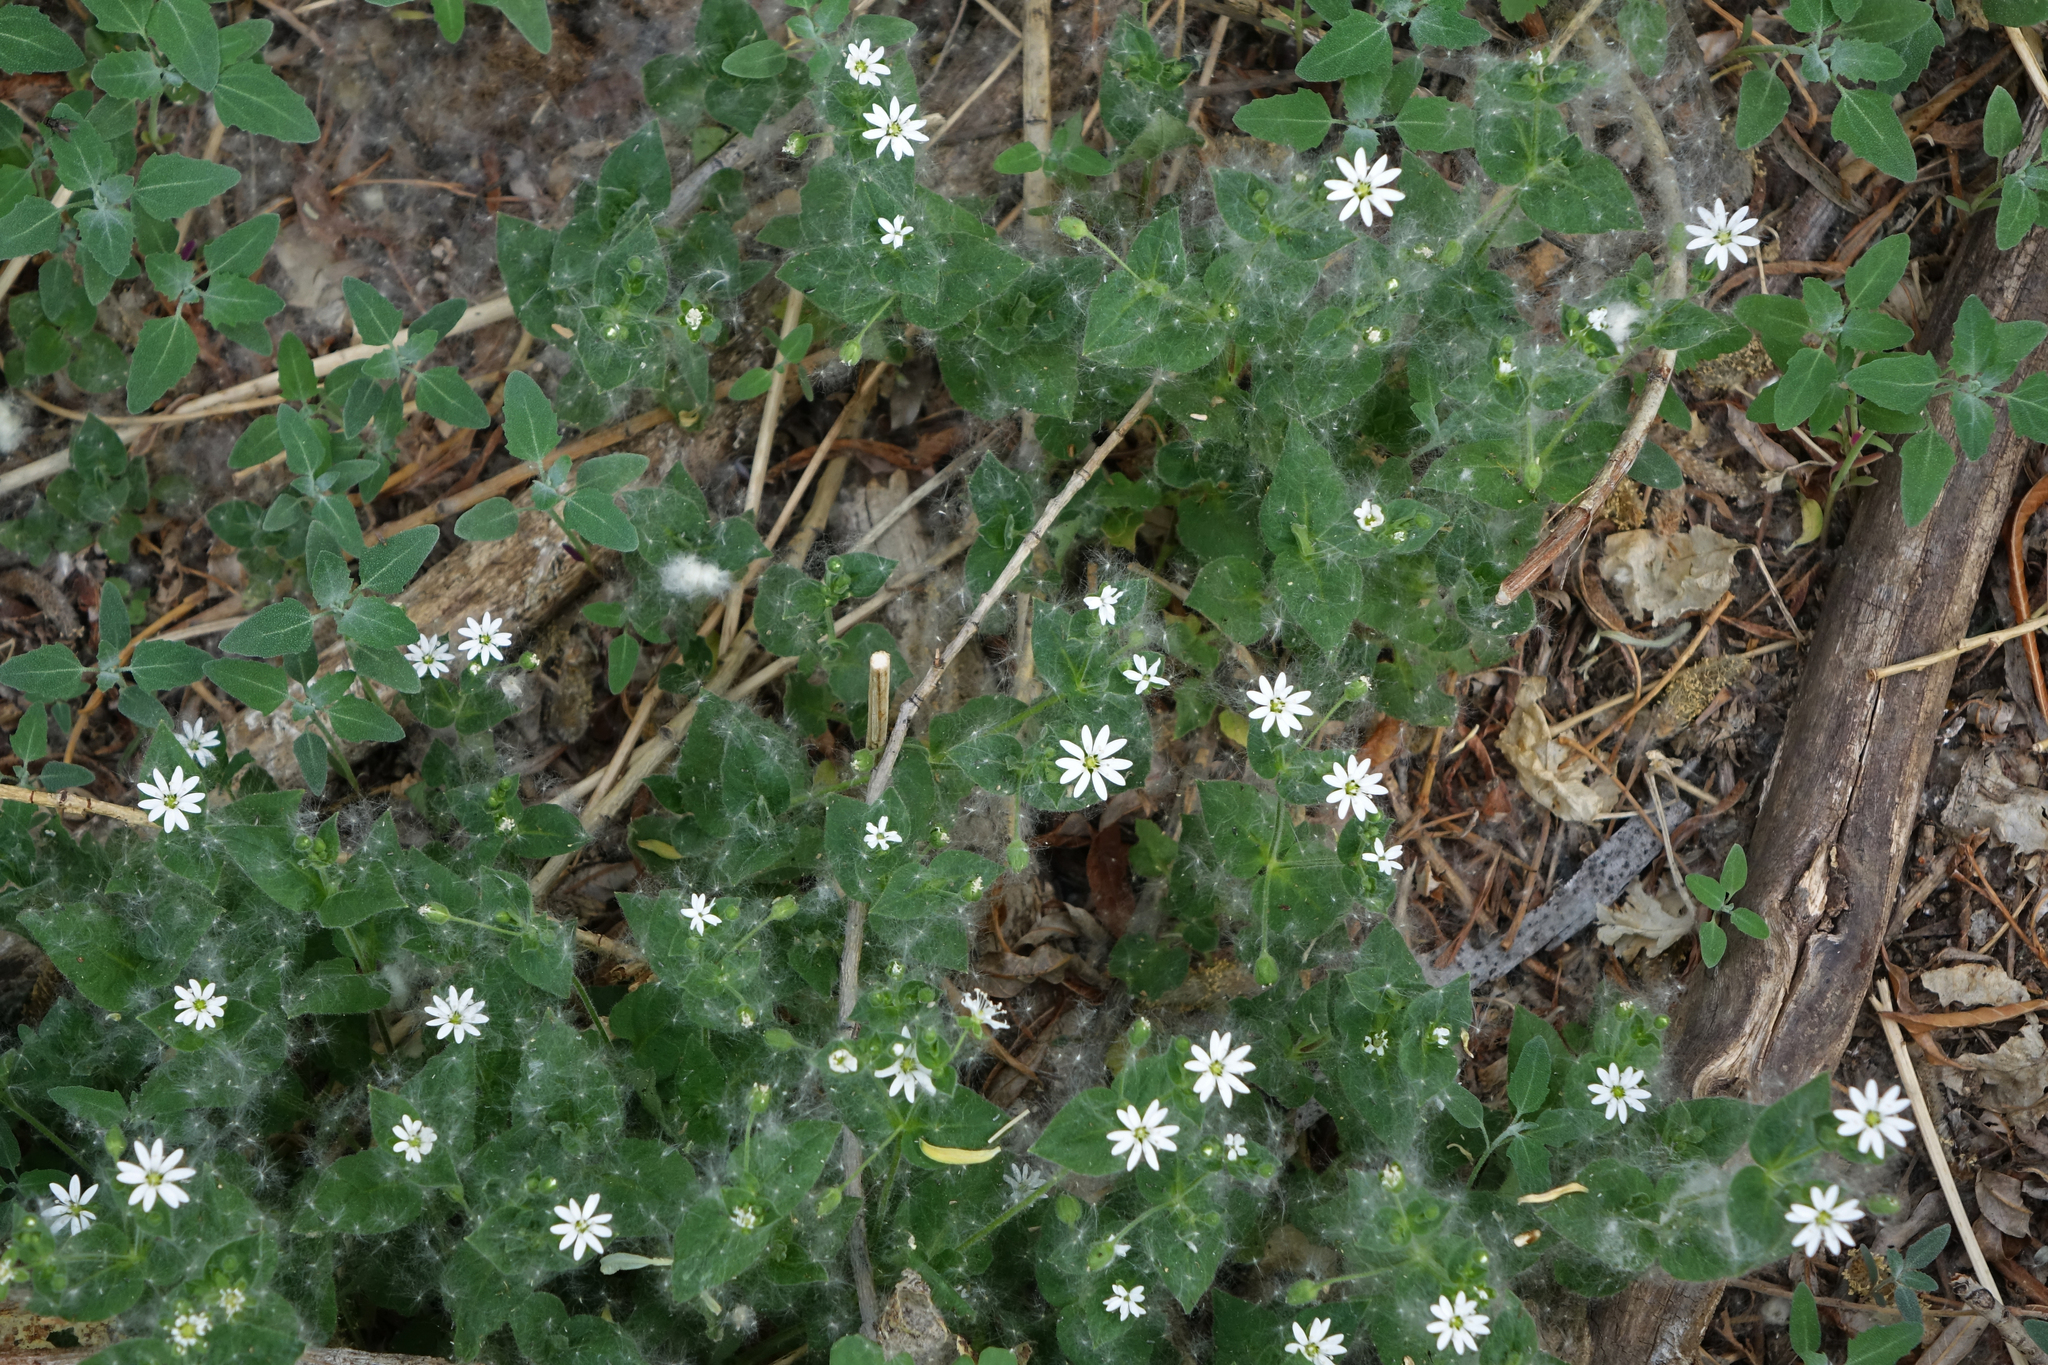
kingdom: Plantae
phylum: Tracheophyta
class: Magnoliopsida
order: Caryophyllales
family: Caryophyllaceae
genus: Stellaria
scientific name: Stellaria bungeana
